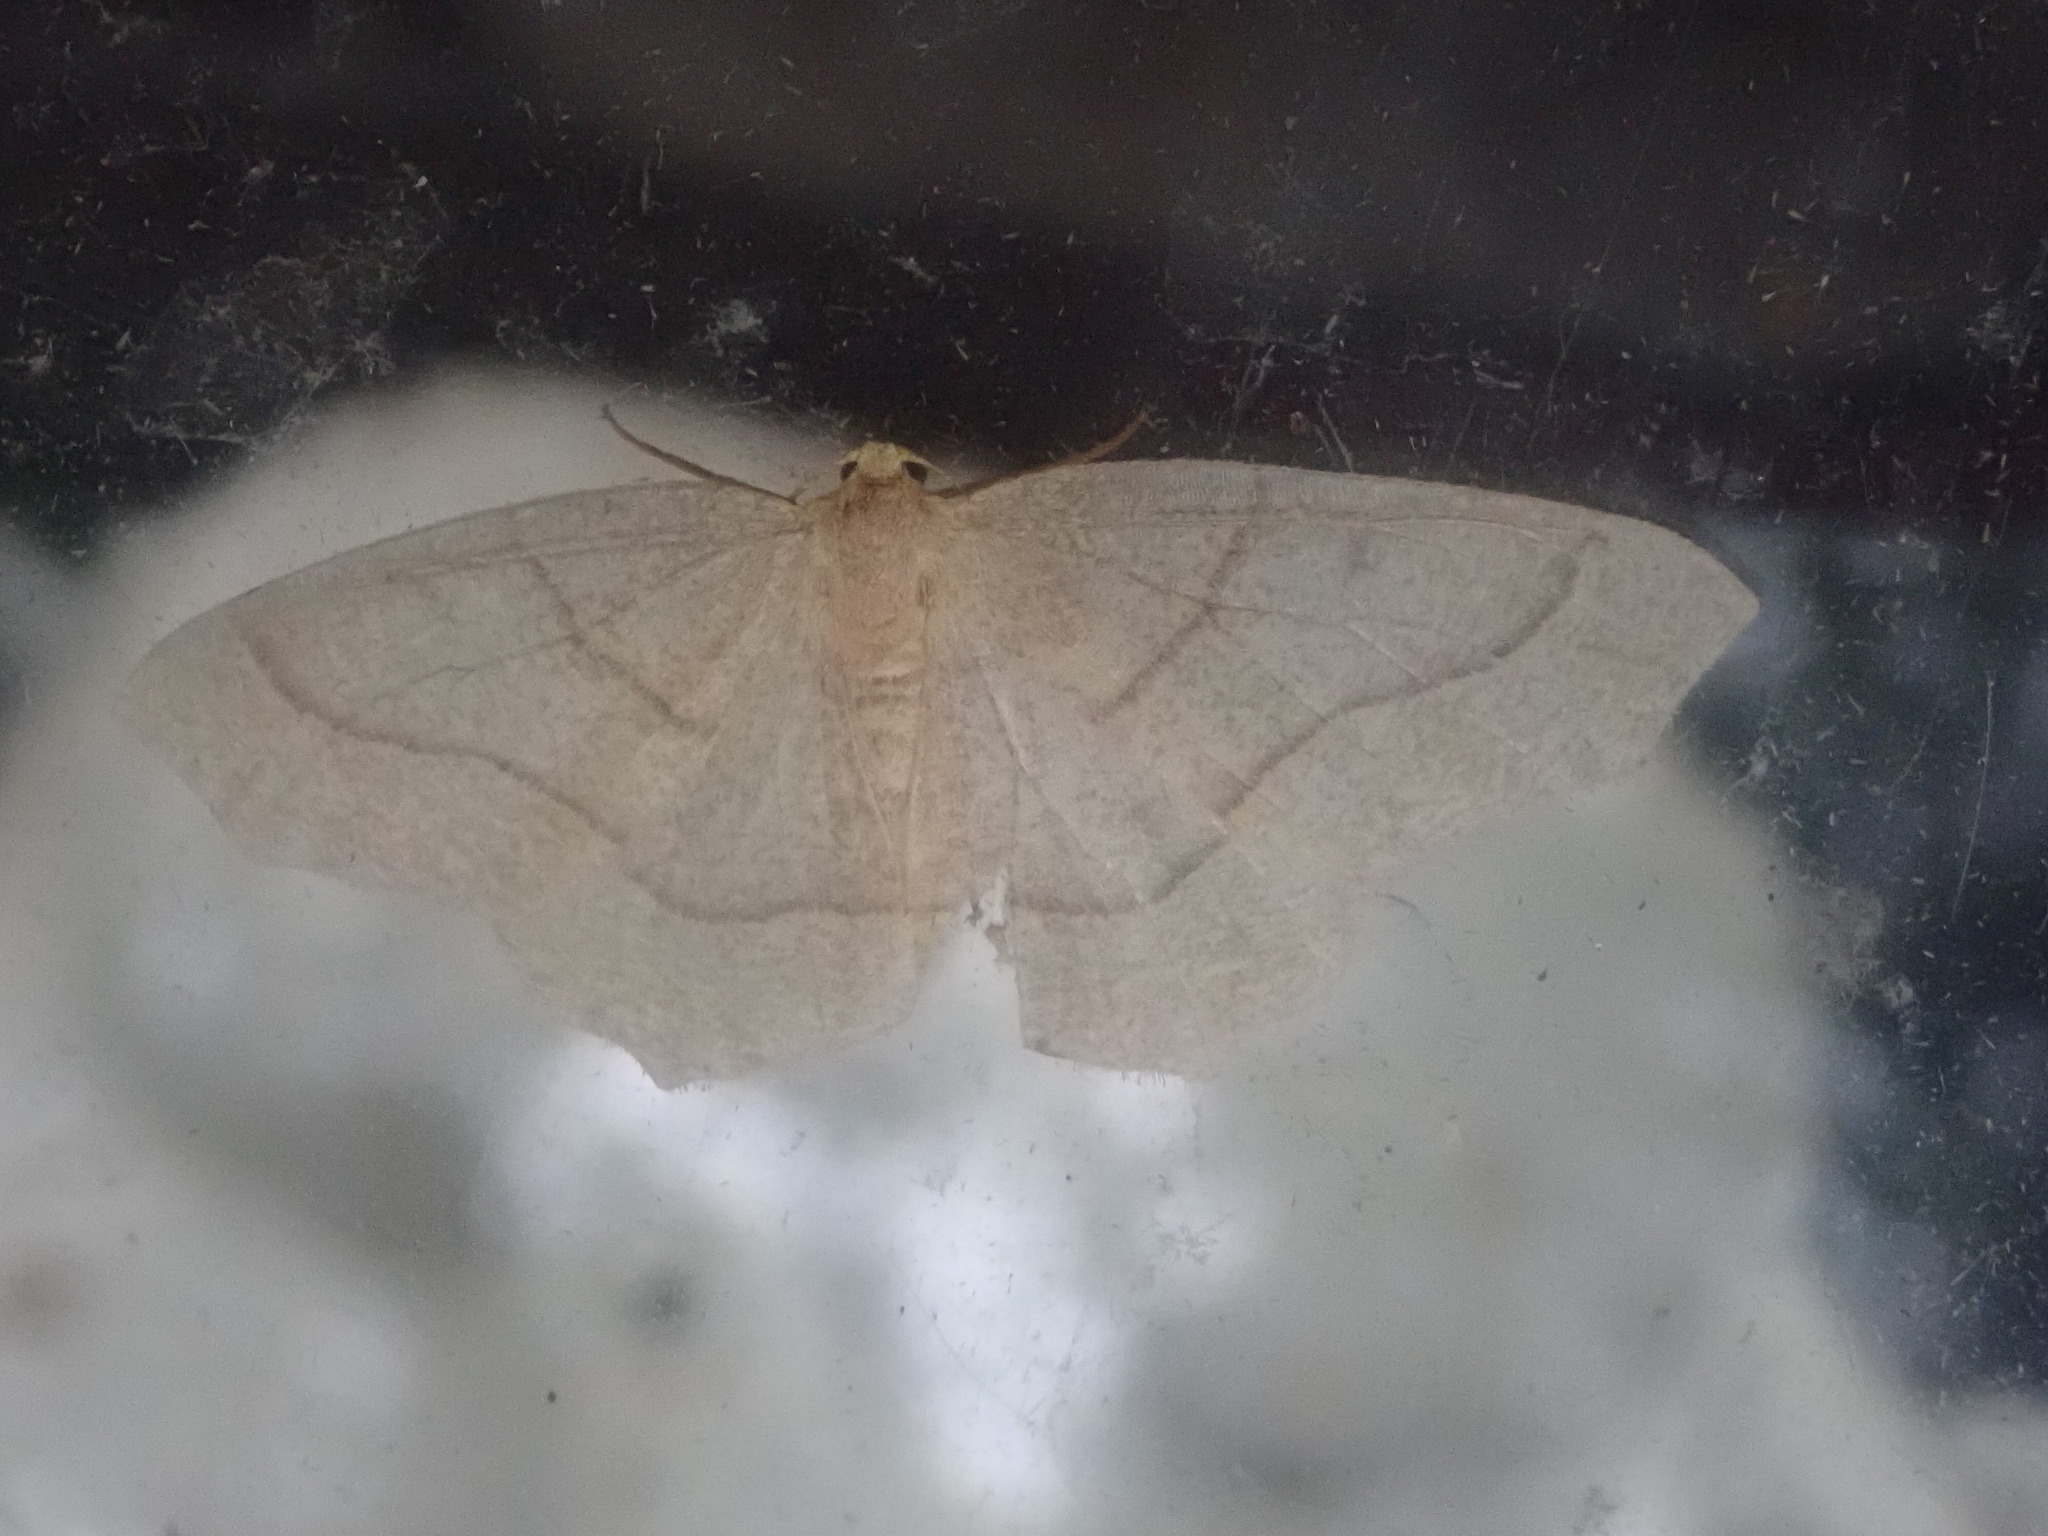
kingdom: Animalia
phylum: Arthropoda
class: Insecta
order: Lepidoptera
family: Geometridae
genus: Lambdina
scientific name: Lambdina fiscellaria
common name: Hemlock looper
